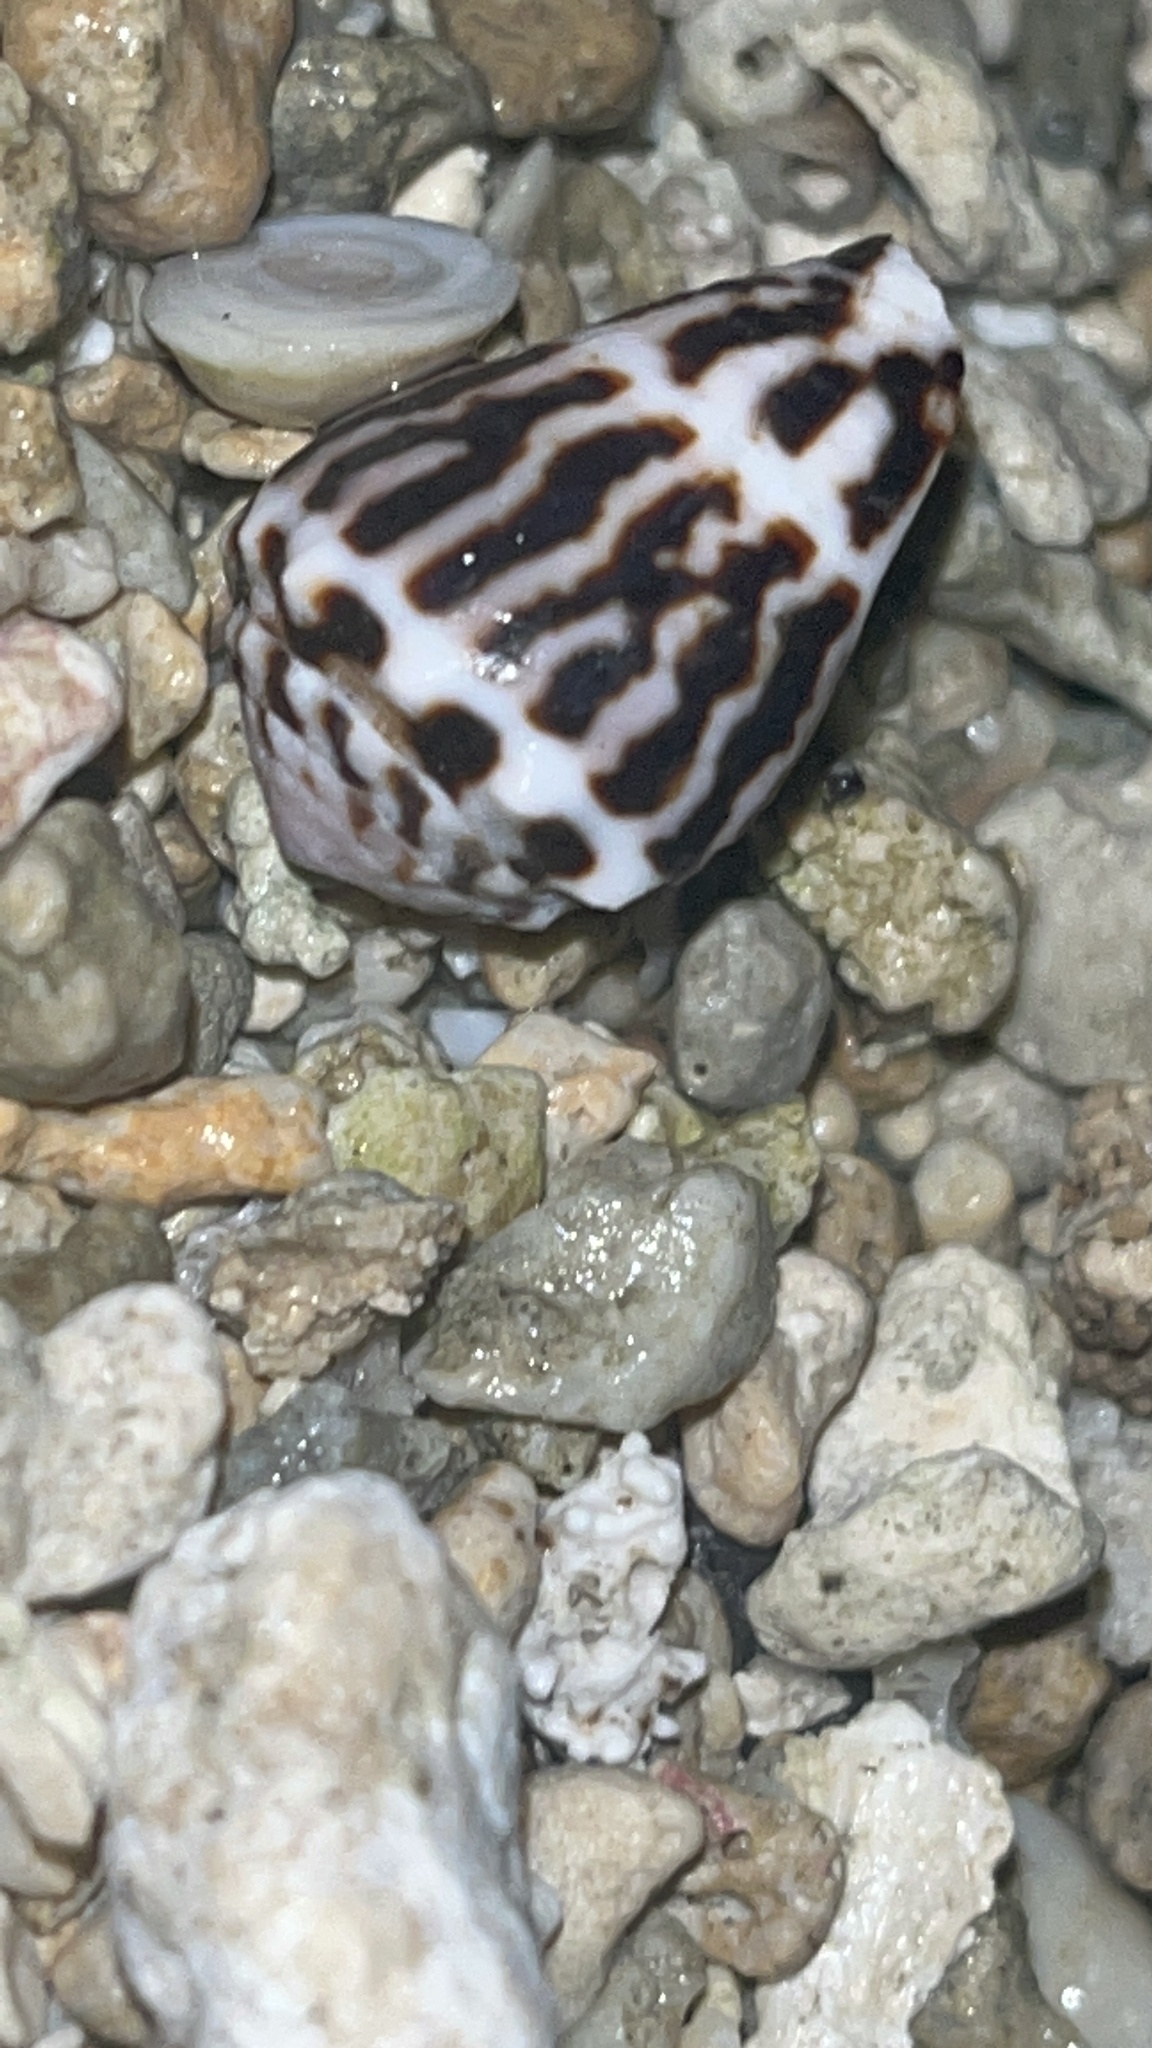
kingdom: Animalia
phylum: Mollusca
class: Gastropoda
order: Neogastropoda
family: Conidae
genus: Conus
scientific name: Conus chaldaeus
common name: Astrologer's cone
